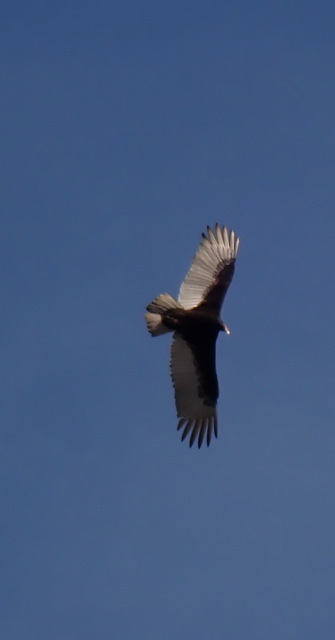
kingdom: Animalia
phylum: Chordata
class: Aves
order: Accipitriformes
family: Cathartidae
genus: Cathartes
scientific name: Cathartes aura
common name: Turkey vulture
